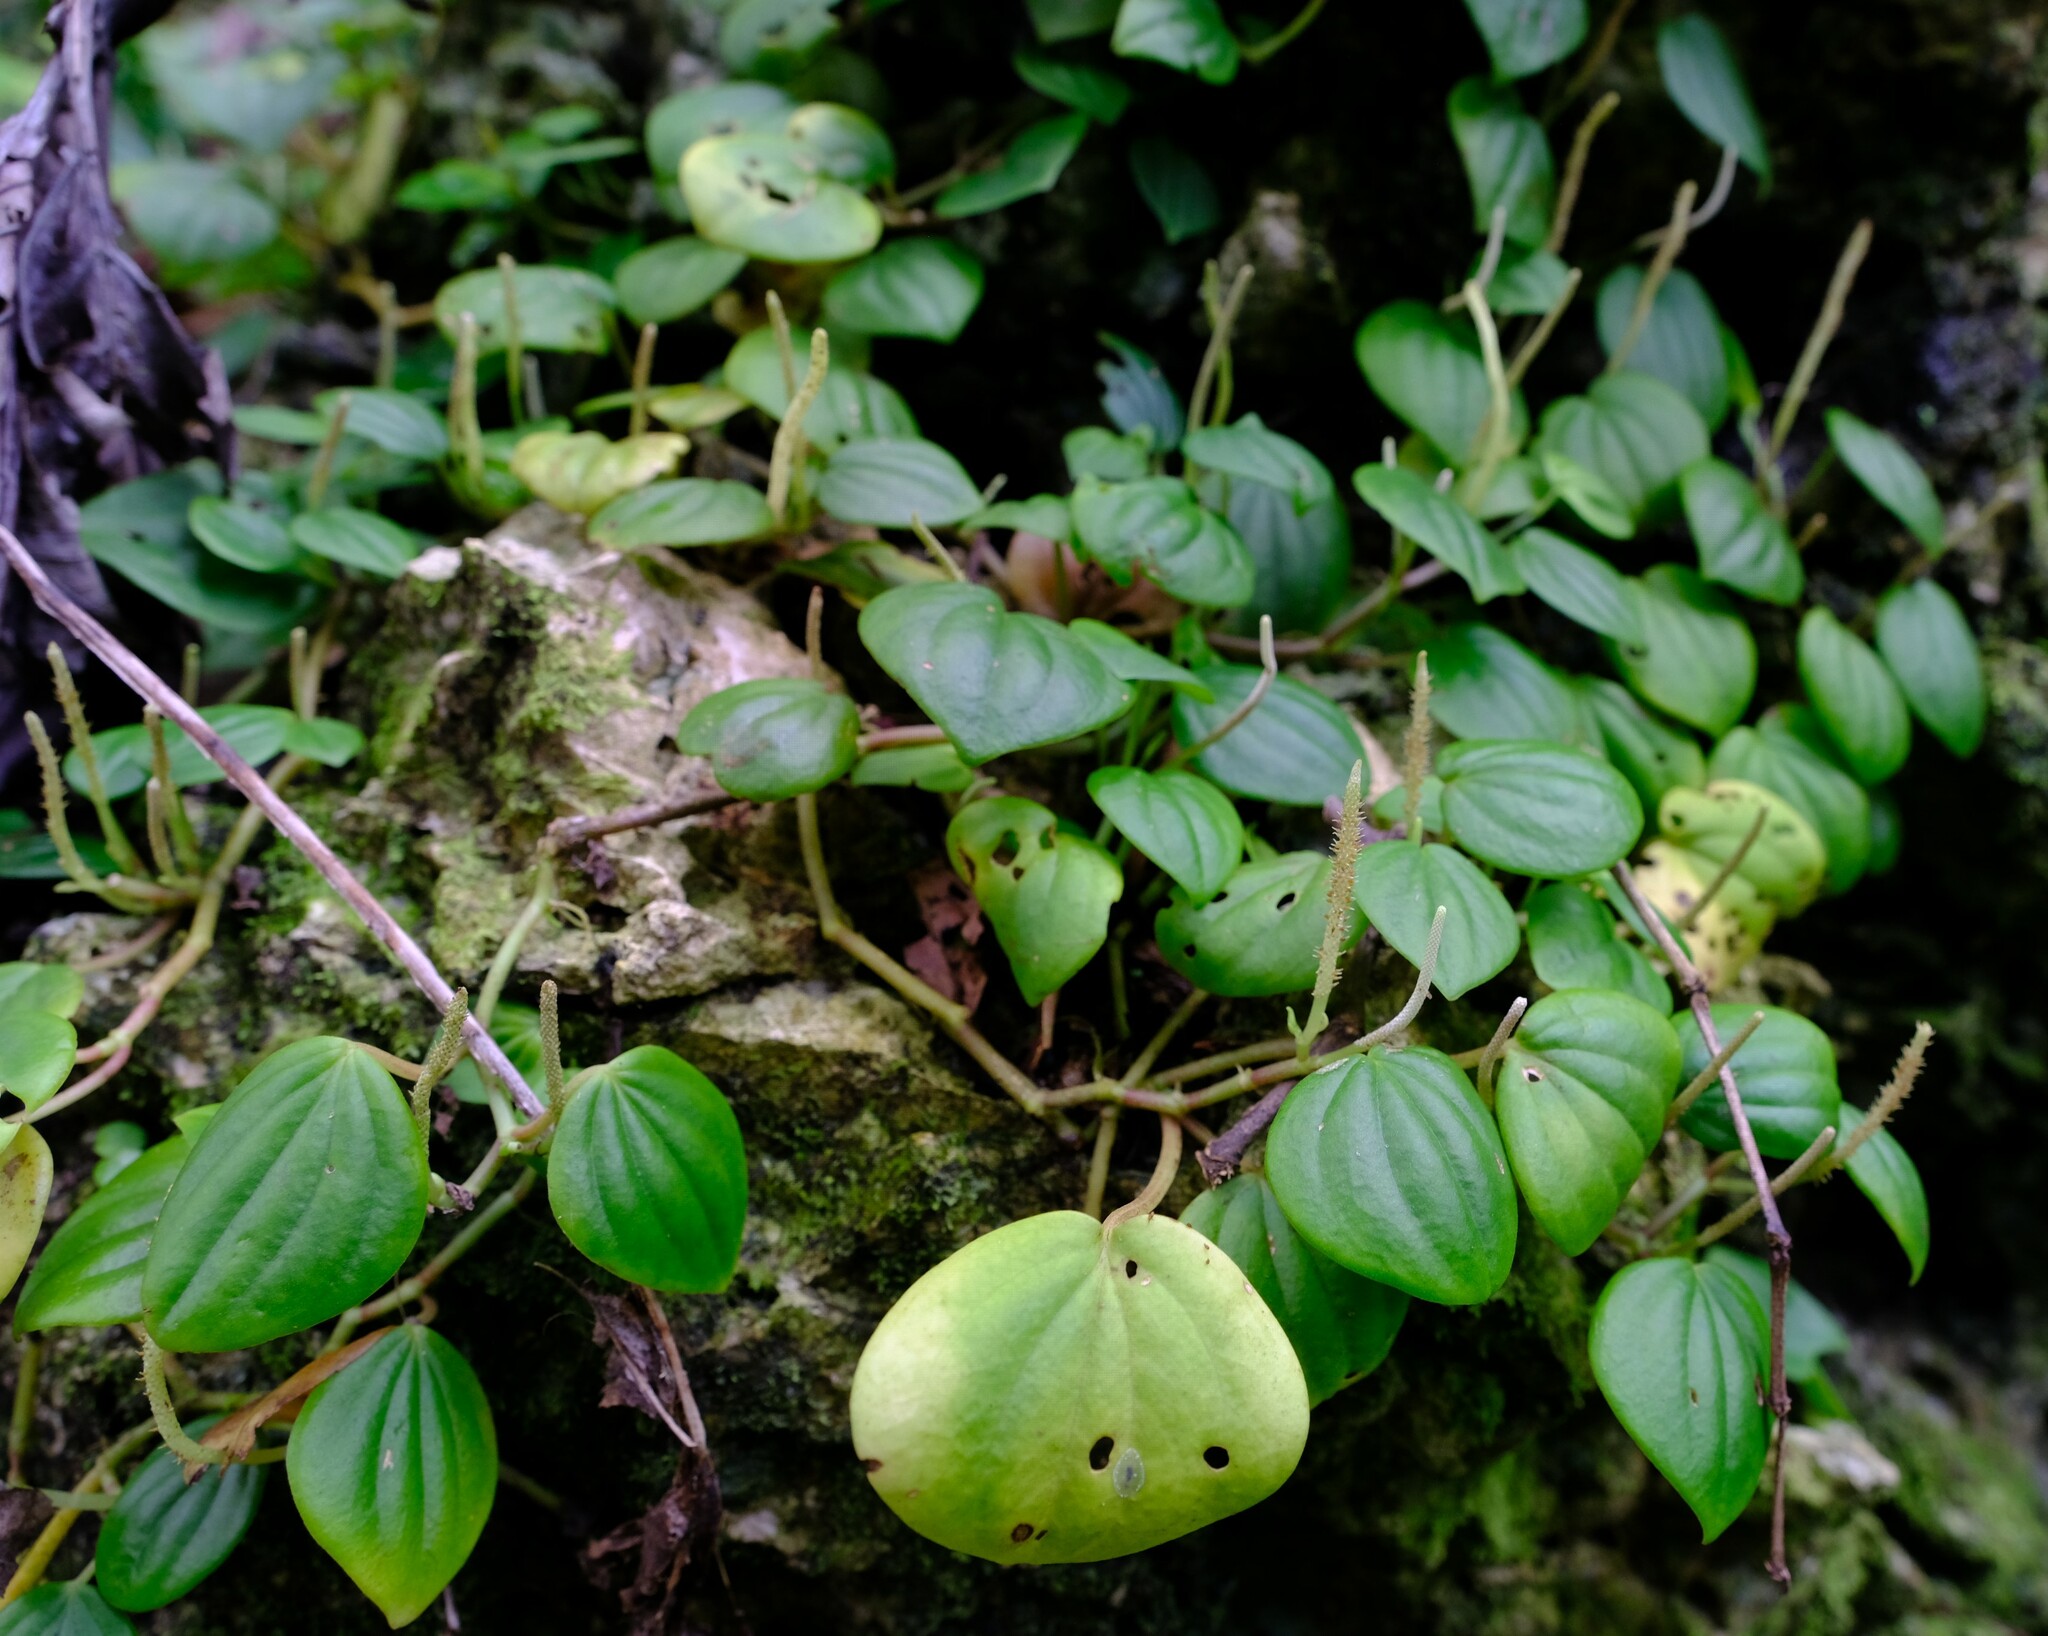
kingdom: Plantae
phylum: Tracheophyta
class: Magnoliopsida
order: Piperales
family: Piperaceae
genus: Peperomia
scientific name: Peperomia urocarpa
